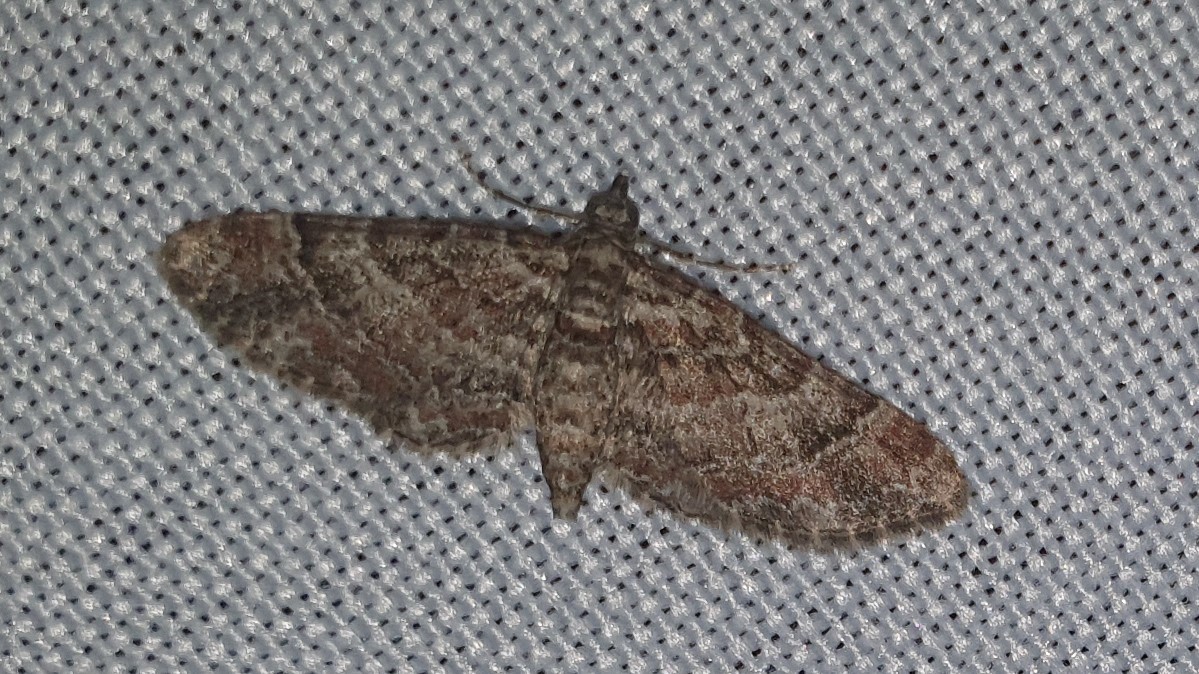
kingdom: Animalia
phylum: Arthropoda
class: Insecta
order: Lepidoptera
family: Geometridae
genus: Gymnoscelis
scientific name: Gymnoscelis rufifasciata
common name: Double-striped pug
